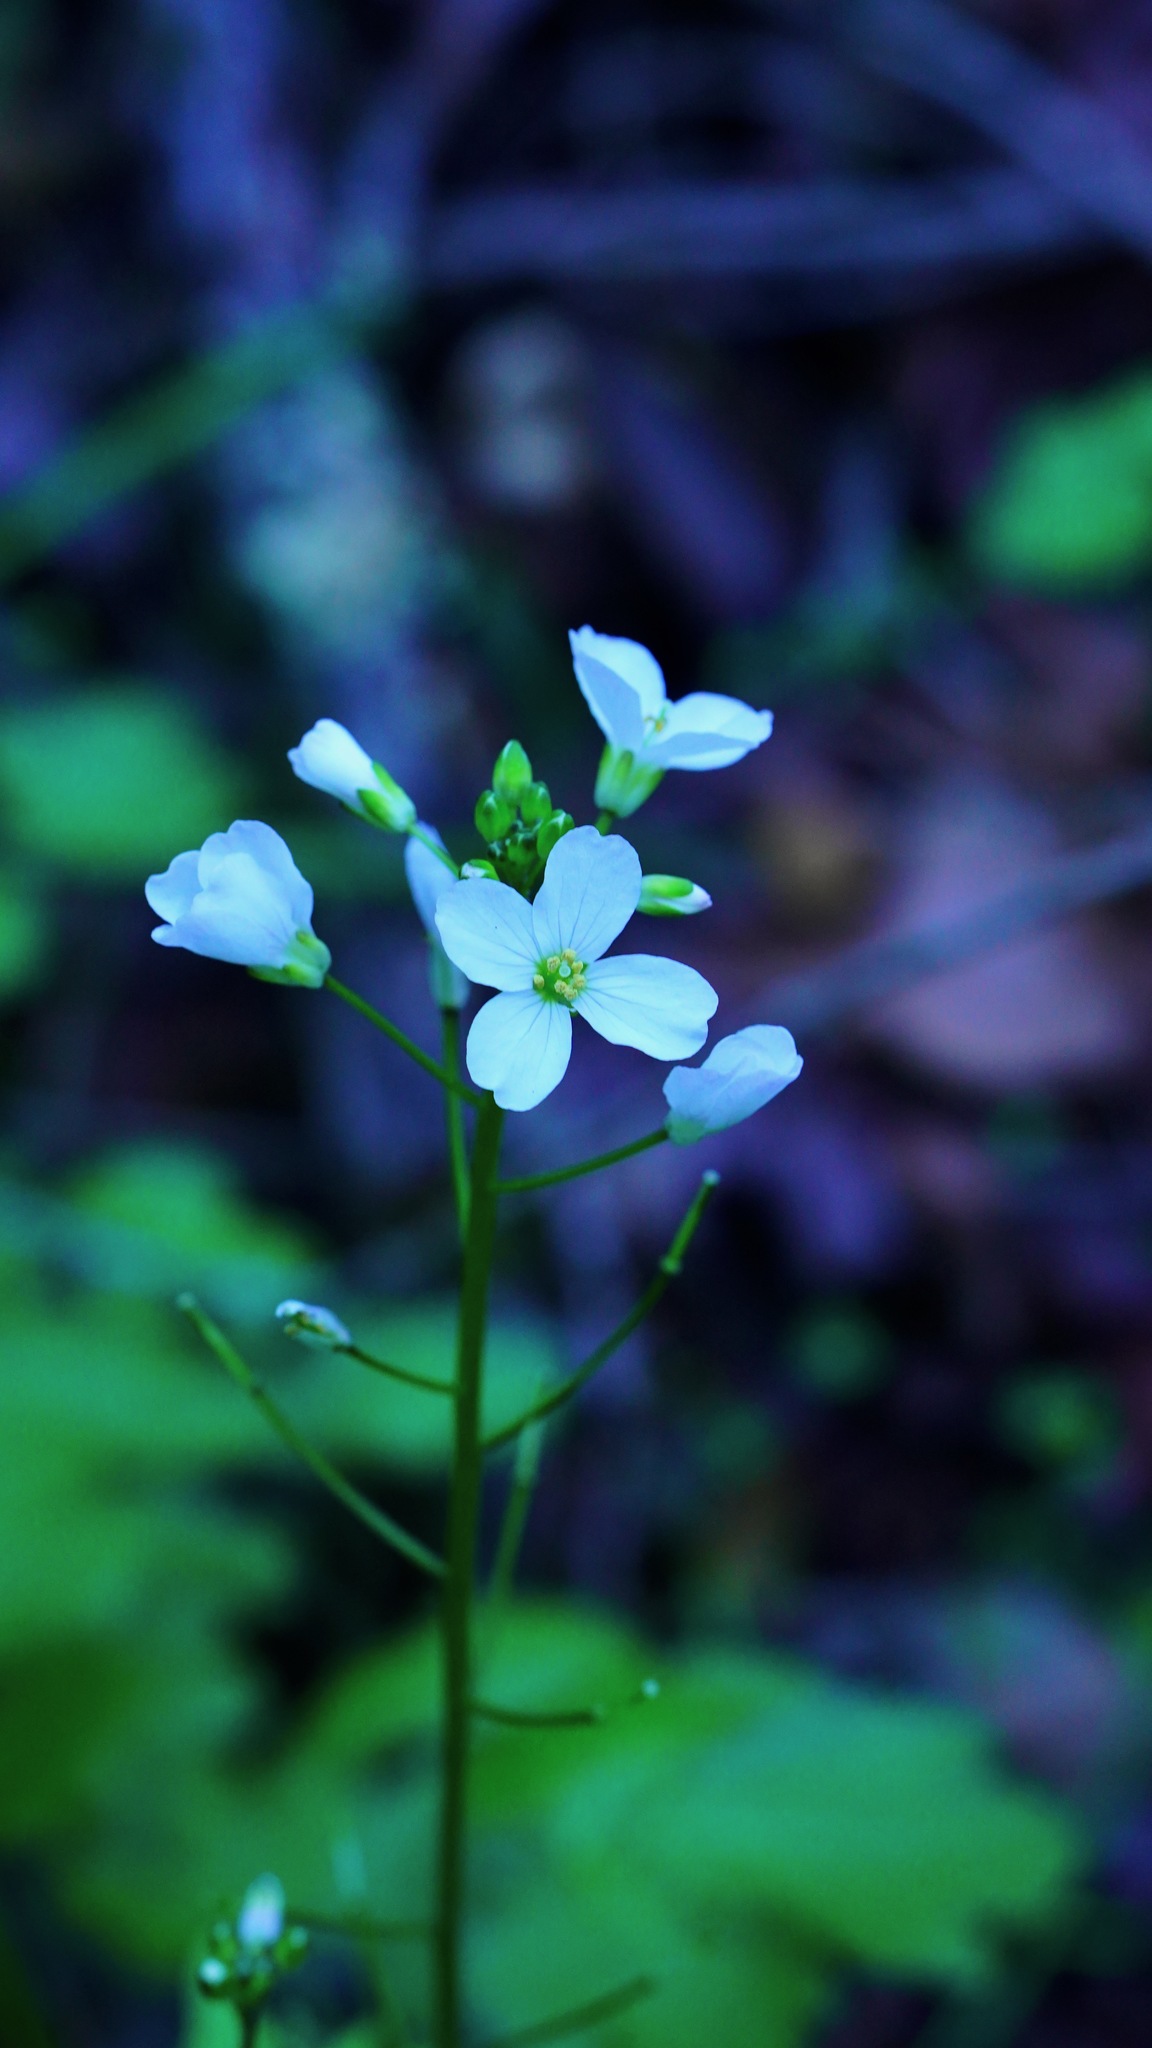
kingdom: Plantae
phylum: Tracheophyta
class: Magnoliopsida
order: Brassicales
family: Brassicaceae
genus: Cardamine
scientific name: Cardamine californica
